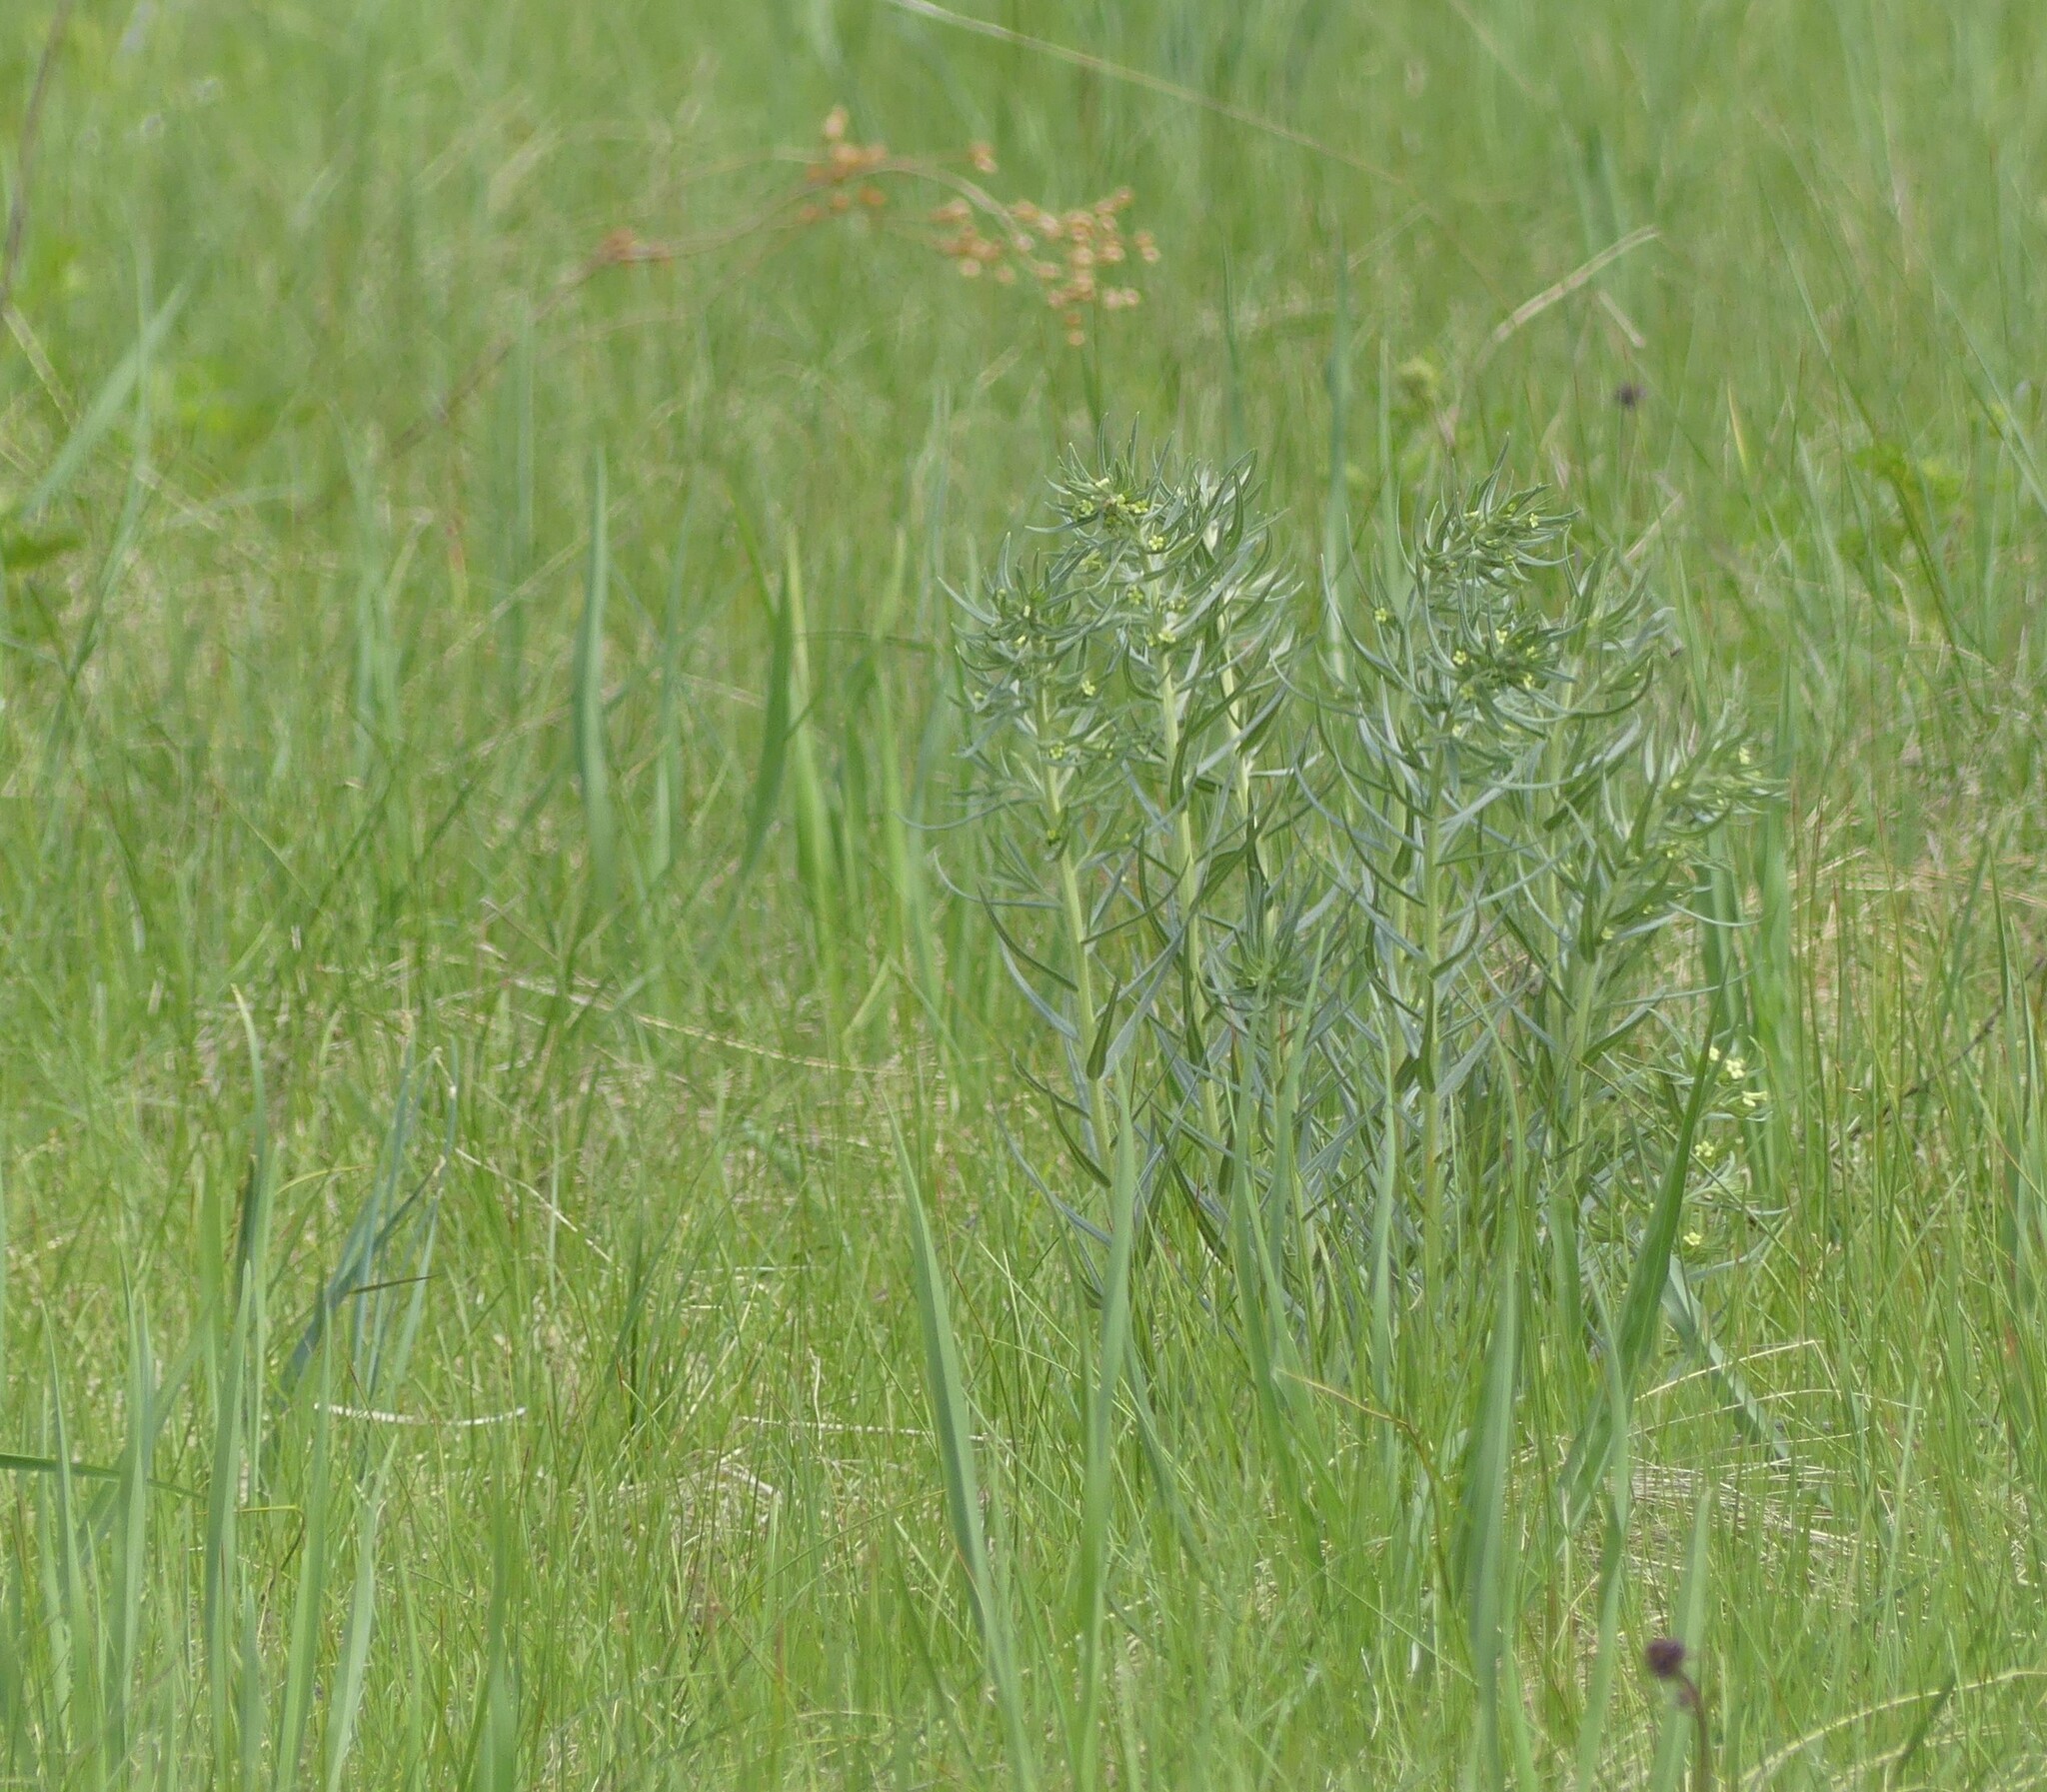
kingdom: Plantae
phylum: Tracheophyta
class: Magnoliopsida
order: Boraginales
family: Boraginaceae
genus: Lithospermum
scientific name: Lithospermum ruderale
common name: Western gromwell
